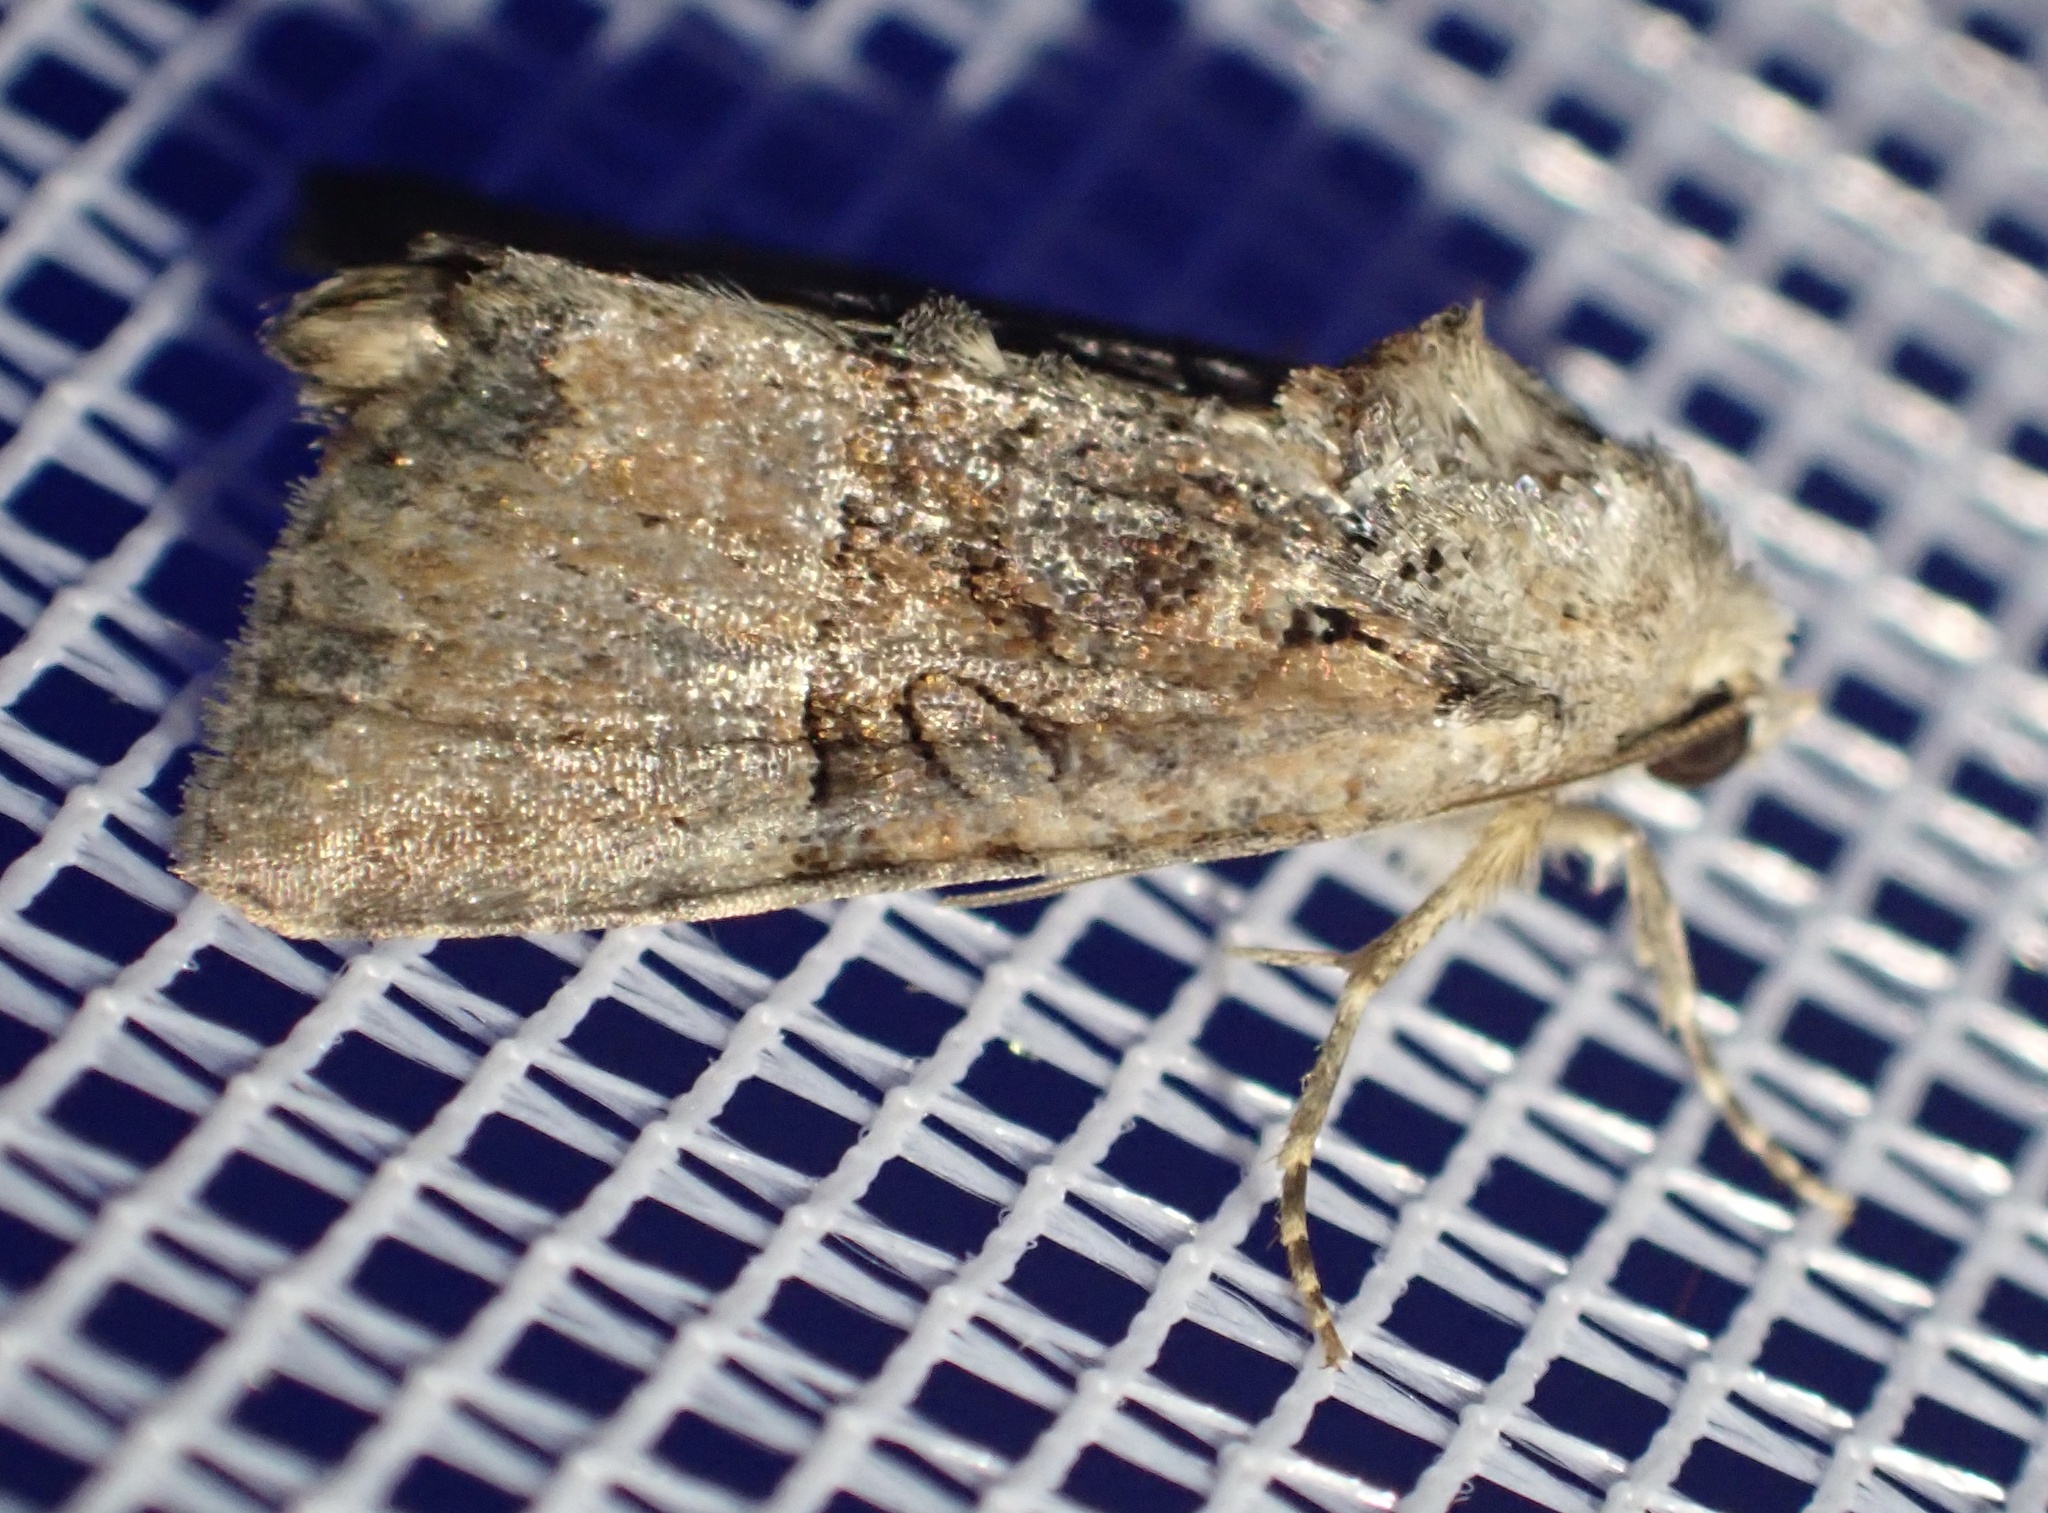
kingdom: Animalia
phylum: Arthropoda
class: Insecta
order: Lepidoptera
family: Noctuidae
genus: Mesoligia
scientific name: Mesoligia furuncula
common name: Cloaked minor
